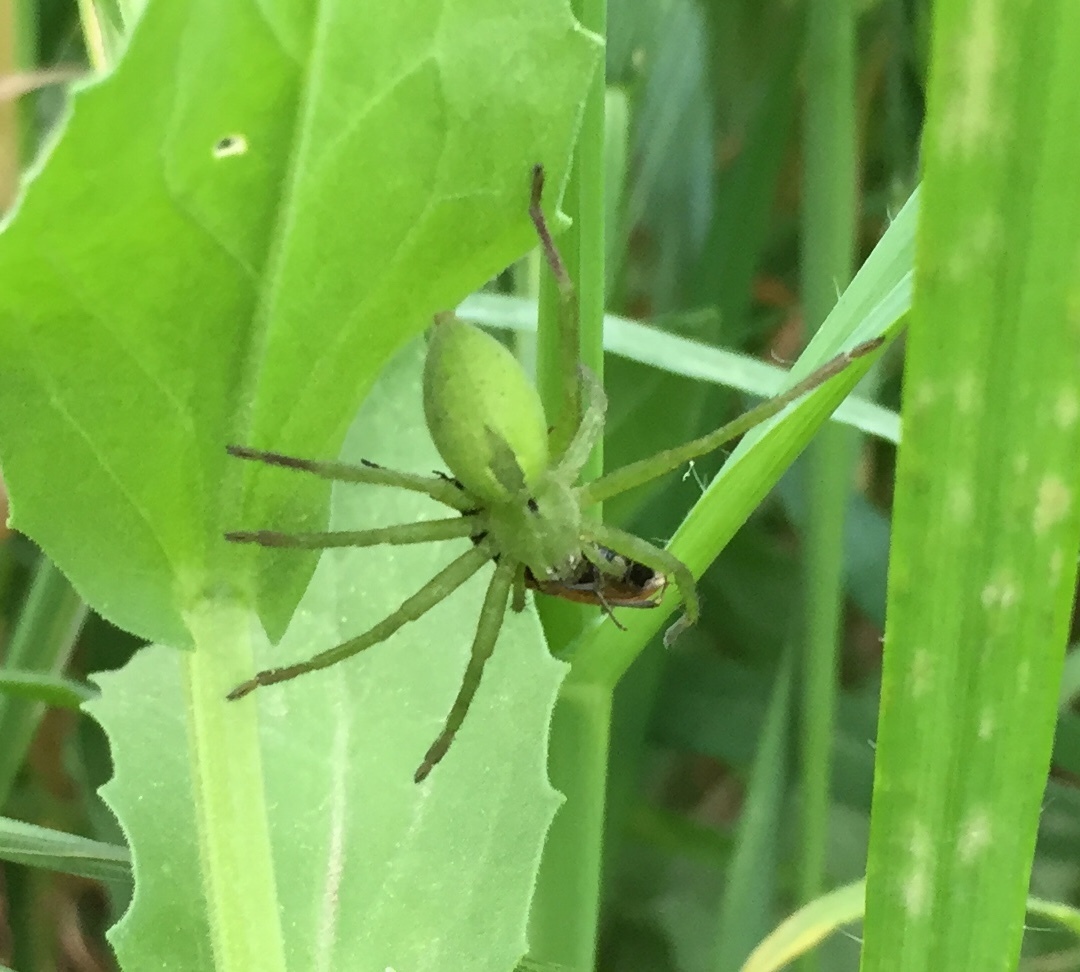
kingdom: Animalia
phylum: Arthropoda
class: Arachnida
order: Araneae
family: Sparassidae
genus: Micrommata
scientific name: Micrommata ligurina
